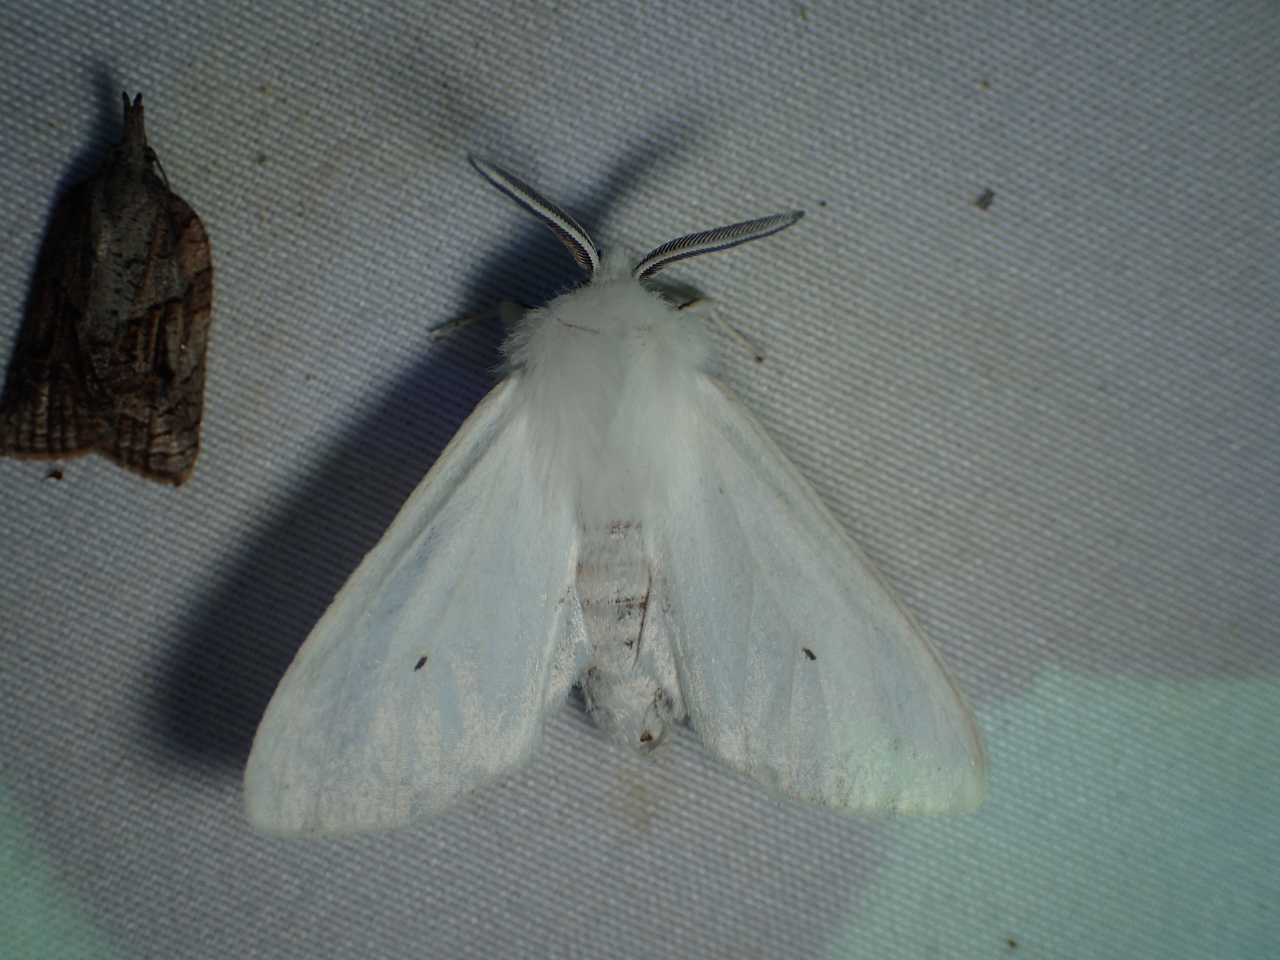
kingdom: Animalia
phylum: Arthropoda
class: Insecta
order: Lepidoptera
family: Erebidae
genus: Spilosoma
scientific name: Spilosoma congrua
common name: Agreeable tiger moth
